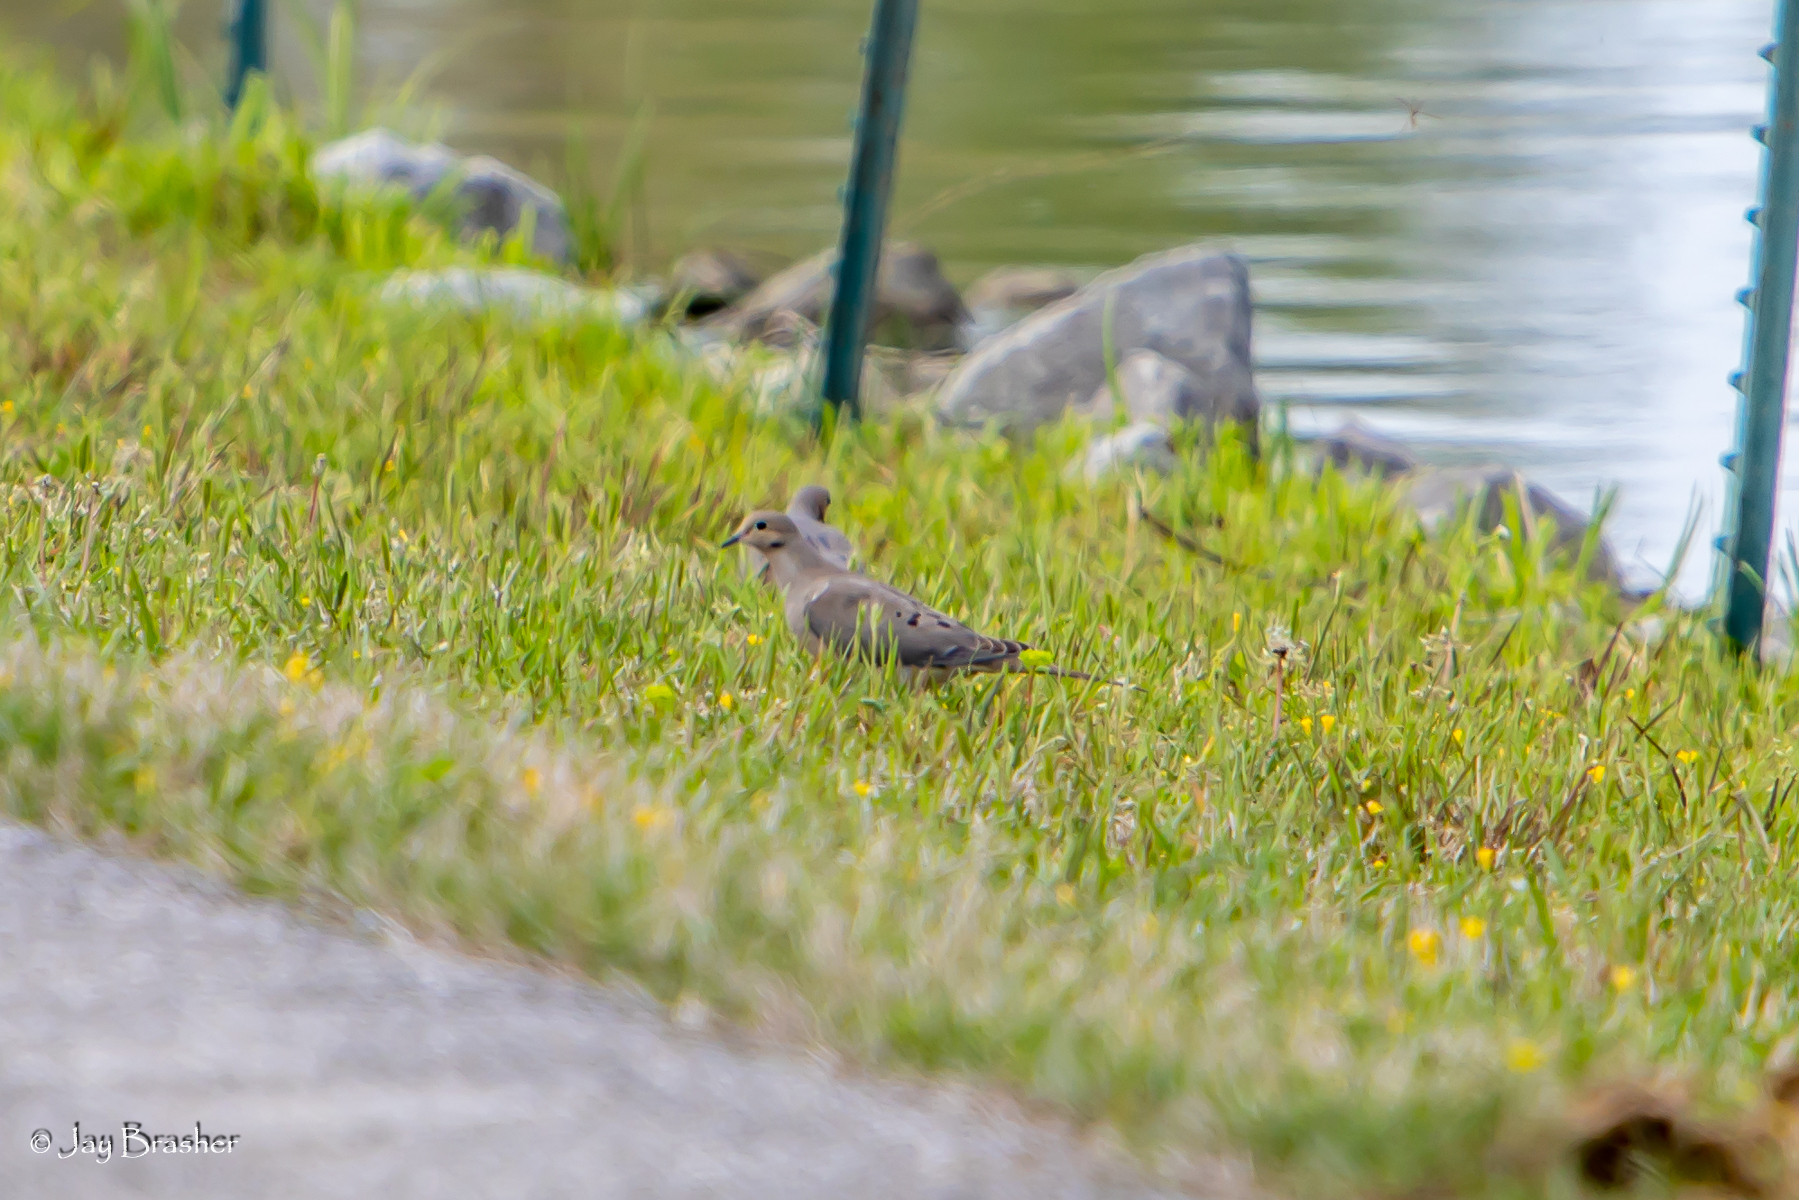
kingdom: Animalia
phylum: Chordata
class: Aves
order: Columbiformes
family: Columbidae
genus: Zenaida
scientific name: Zenaida macroura
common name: Mourning dove
